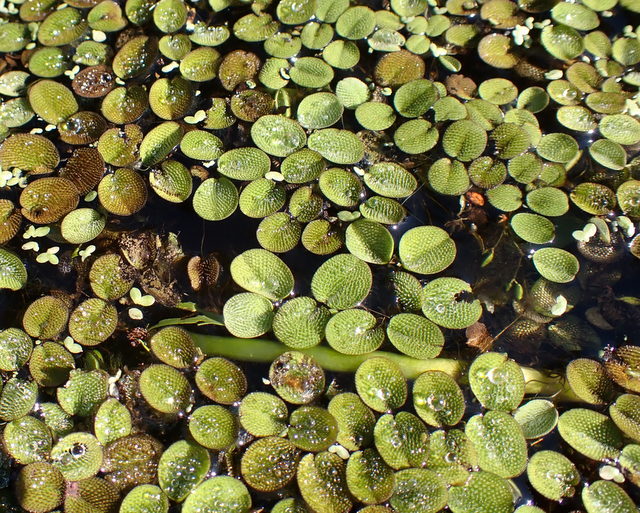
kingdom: Plantae
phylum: Tracheophyta
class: Polypodiopsida
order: Salviniales
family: Salviniaceae
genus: Salvinia
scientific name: Salvinia minima
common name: Water spangles
